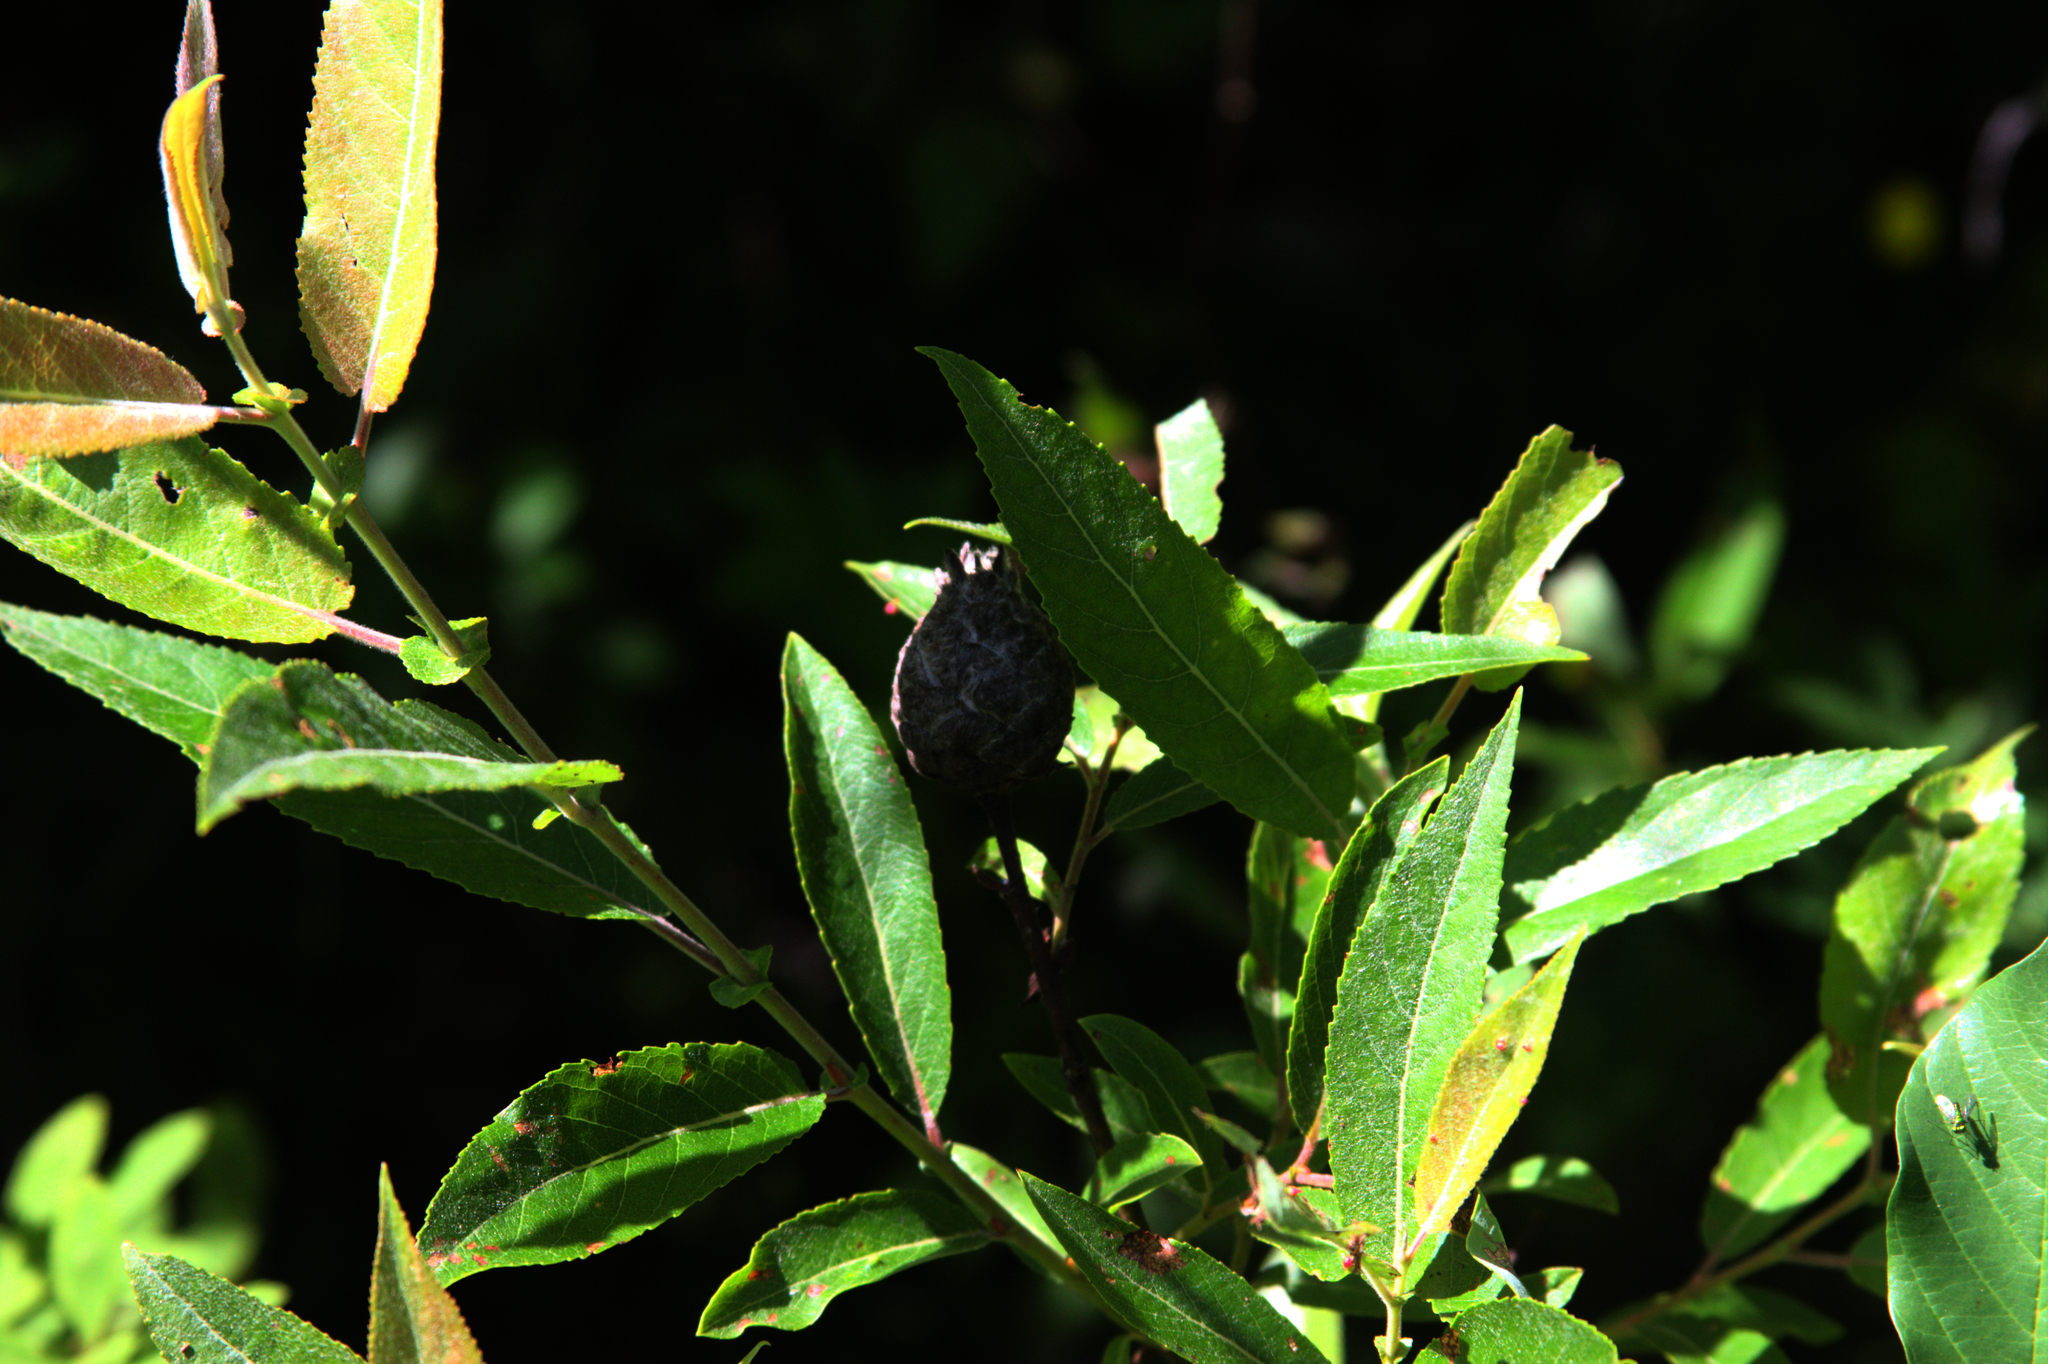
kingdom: Animalia
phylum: Arthropoda
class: Insecta
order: Diptera
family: Cecidomyiidae
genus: Rabdophaga
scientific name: Rabdophaga strobiloides
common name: Willow pinecone gall midge
